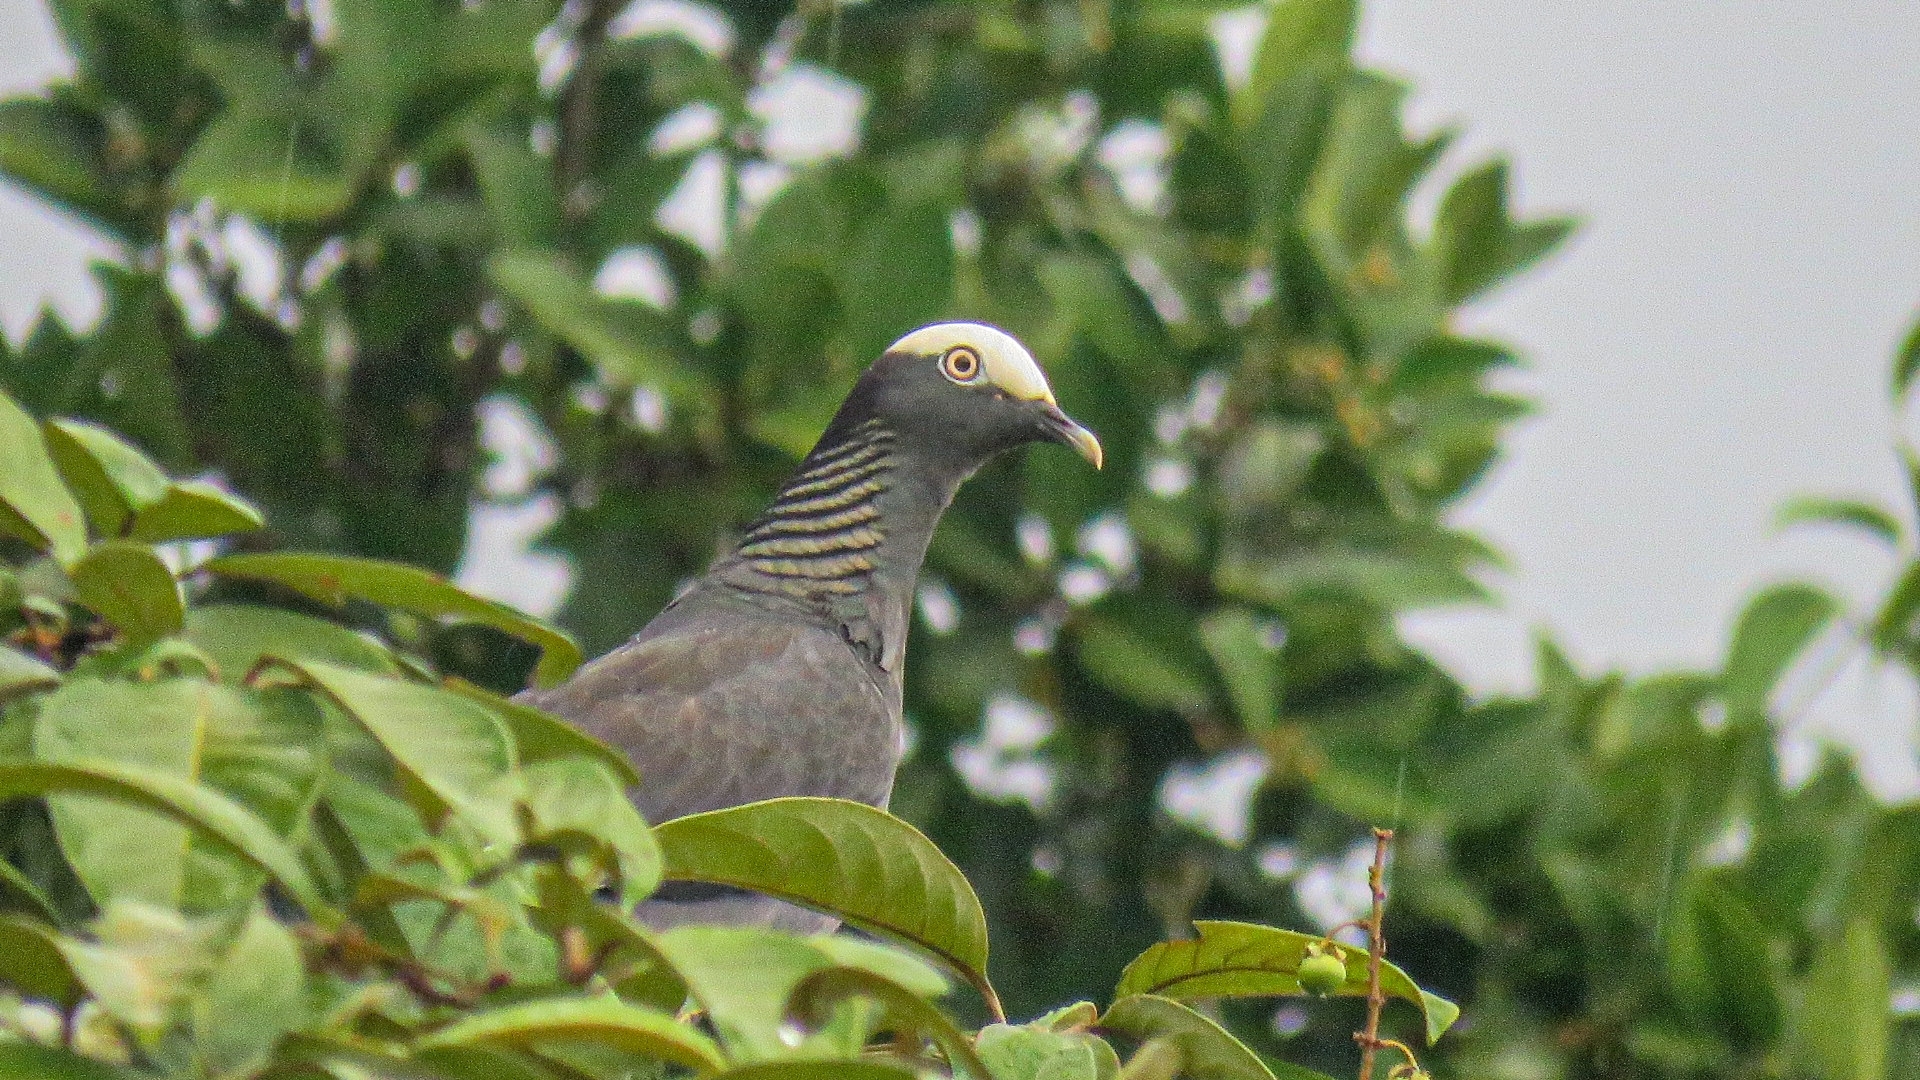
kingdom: Animalia
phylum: Chordata
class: Aves
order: Columbiformes
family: Columbidae
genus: Patagioenas
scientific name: Patagioenas leucocephala
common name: White-crowned pigeon
